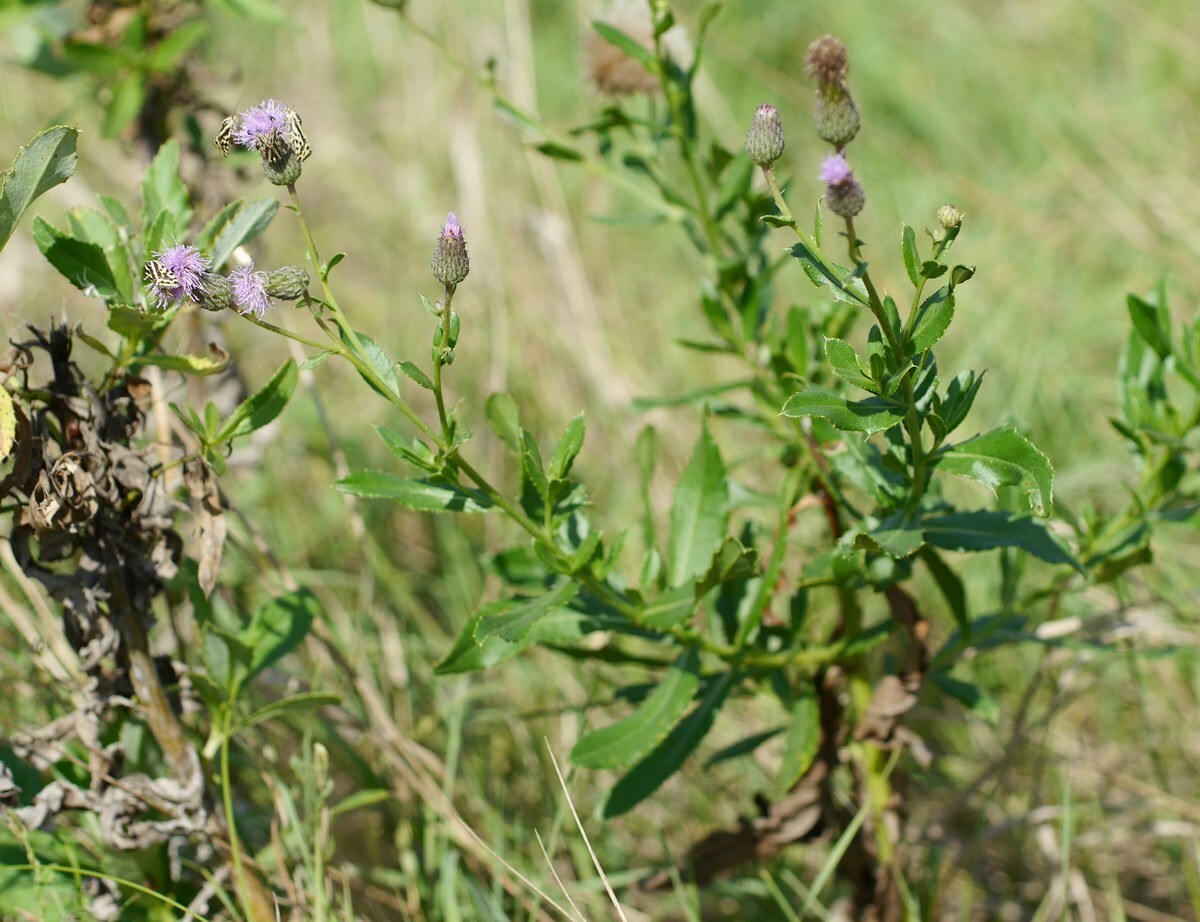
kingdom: Plantae
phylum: Tracheophyta
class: Magnoliopsida
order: Asterales
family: Asteraceae
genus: Cirsium
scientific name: Cirsium arvense
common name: Creeping thistle
